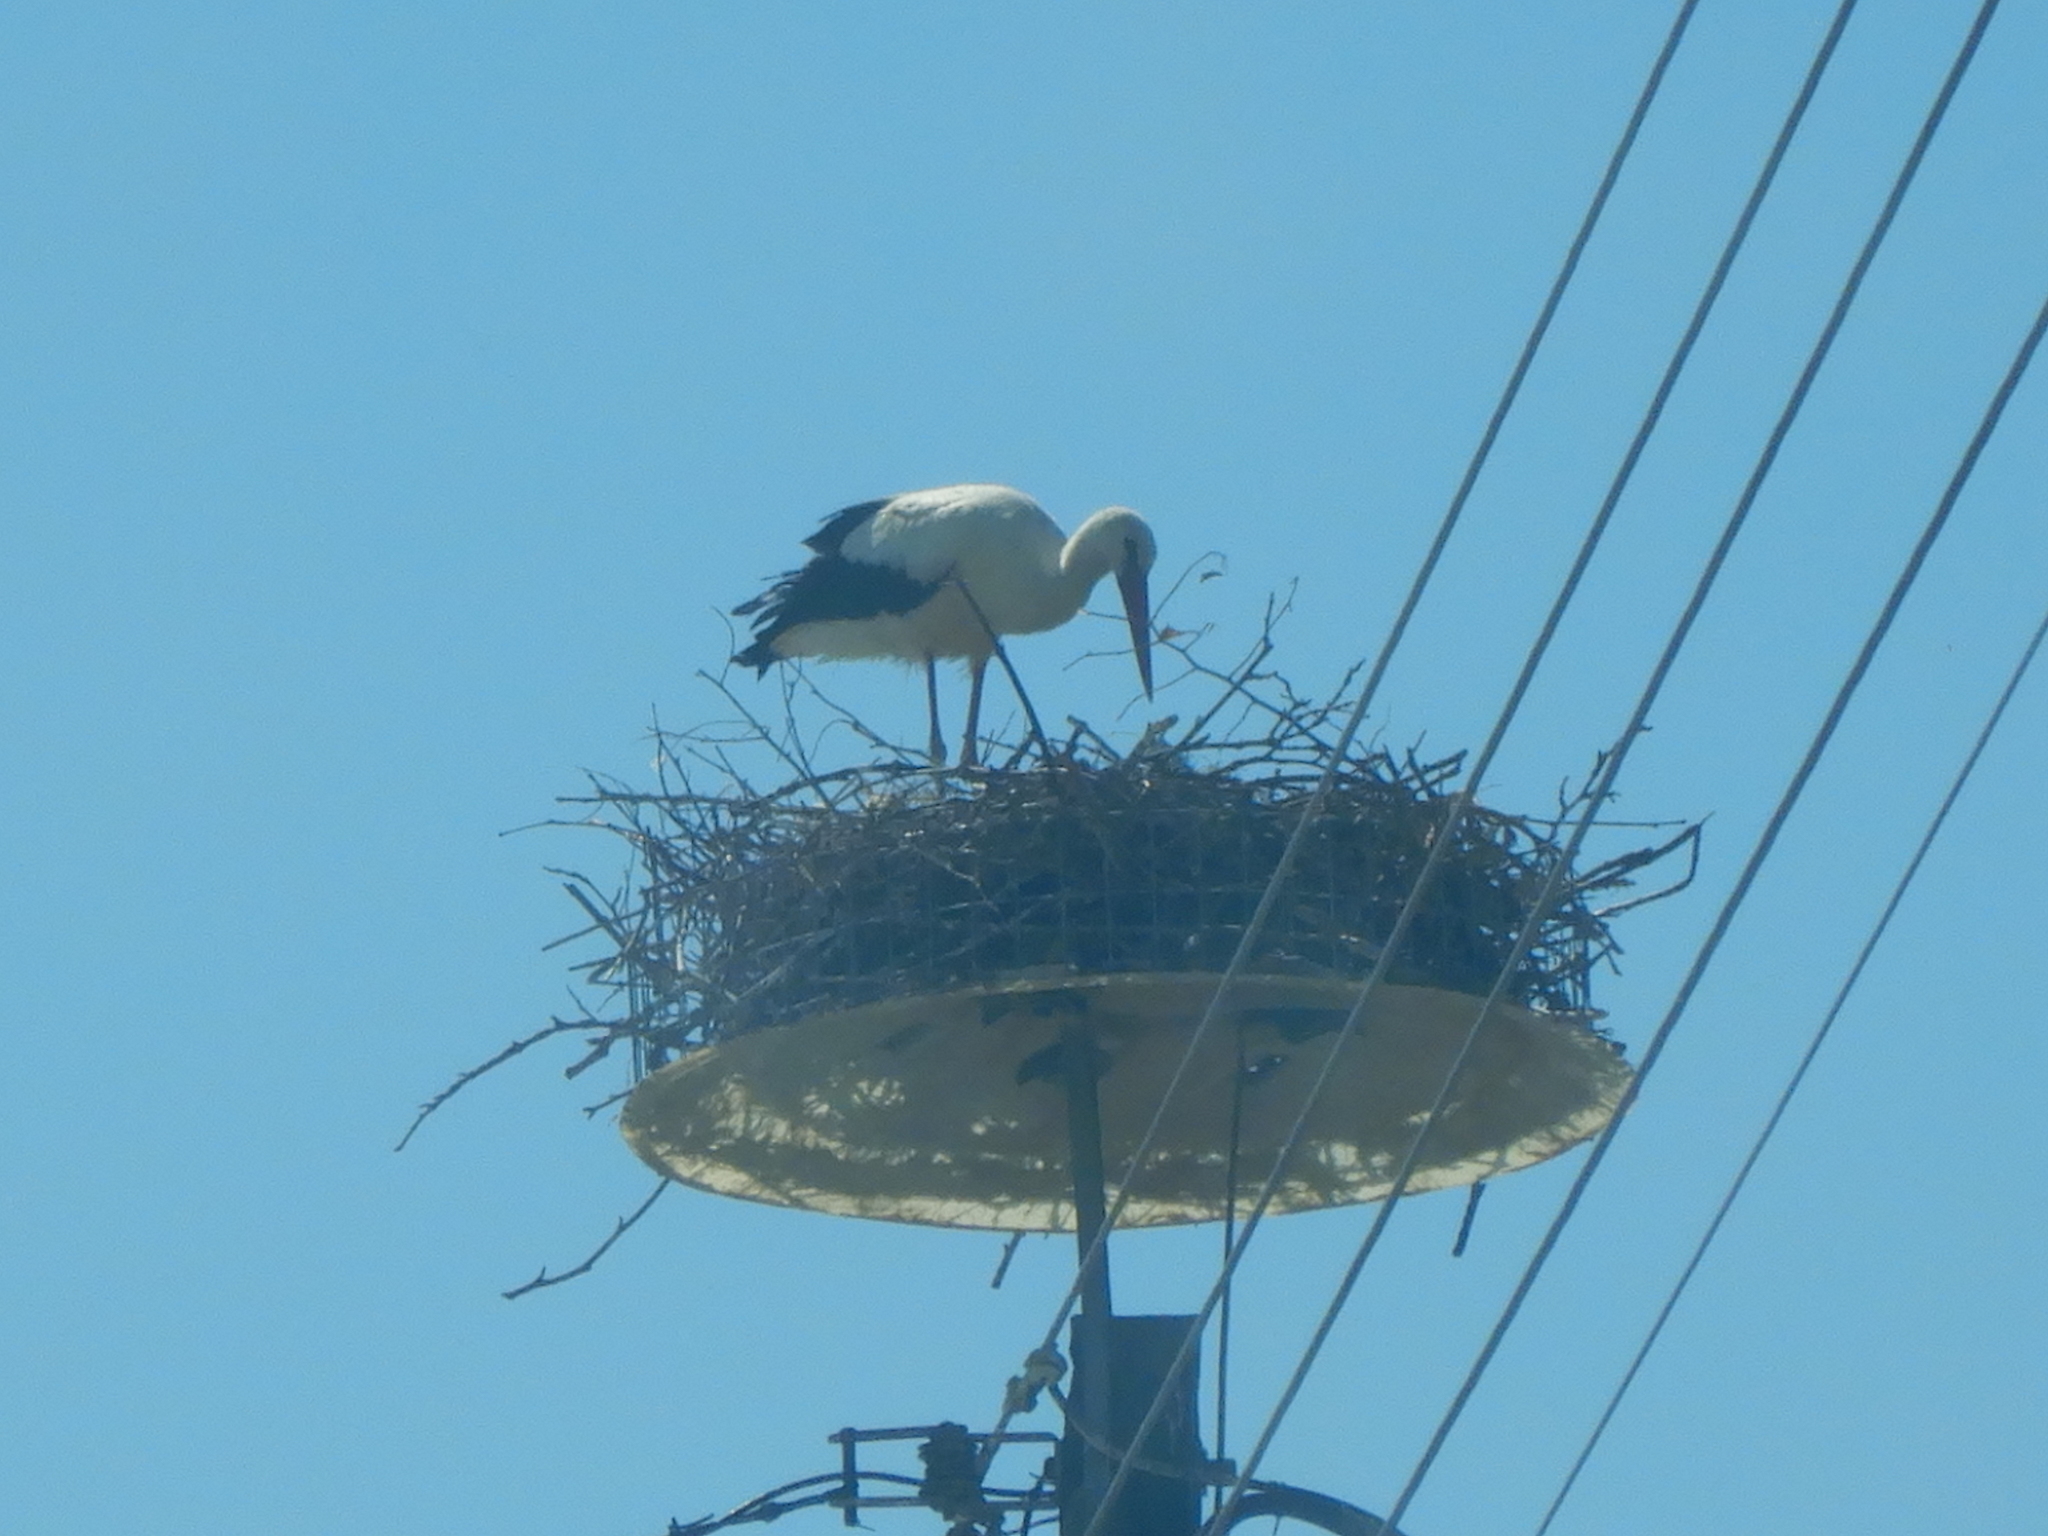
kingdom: Animalia
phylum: Chordata
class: Aves
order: Ciconiiformes
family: Ciconiidae
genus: Ciconia
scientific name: Ciconia ciconia
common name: White stork
